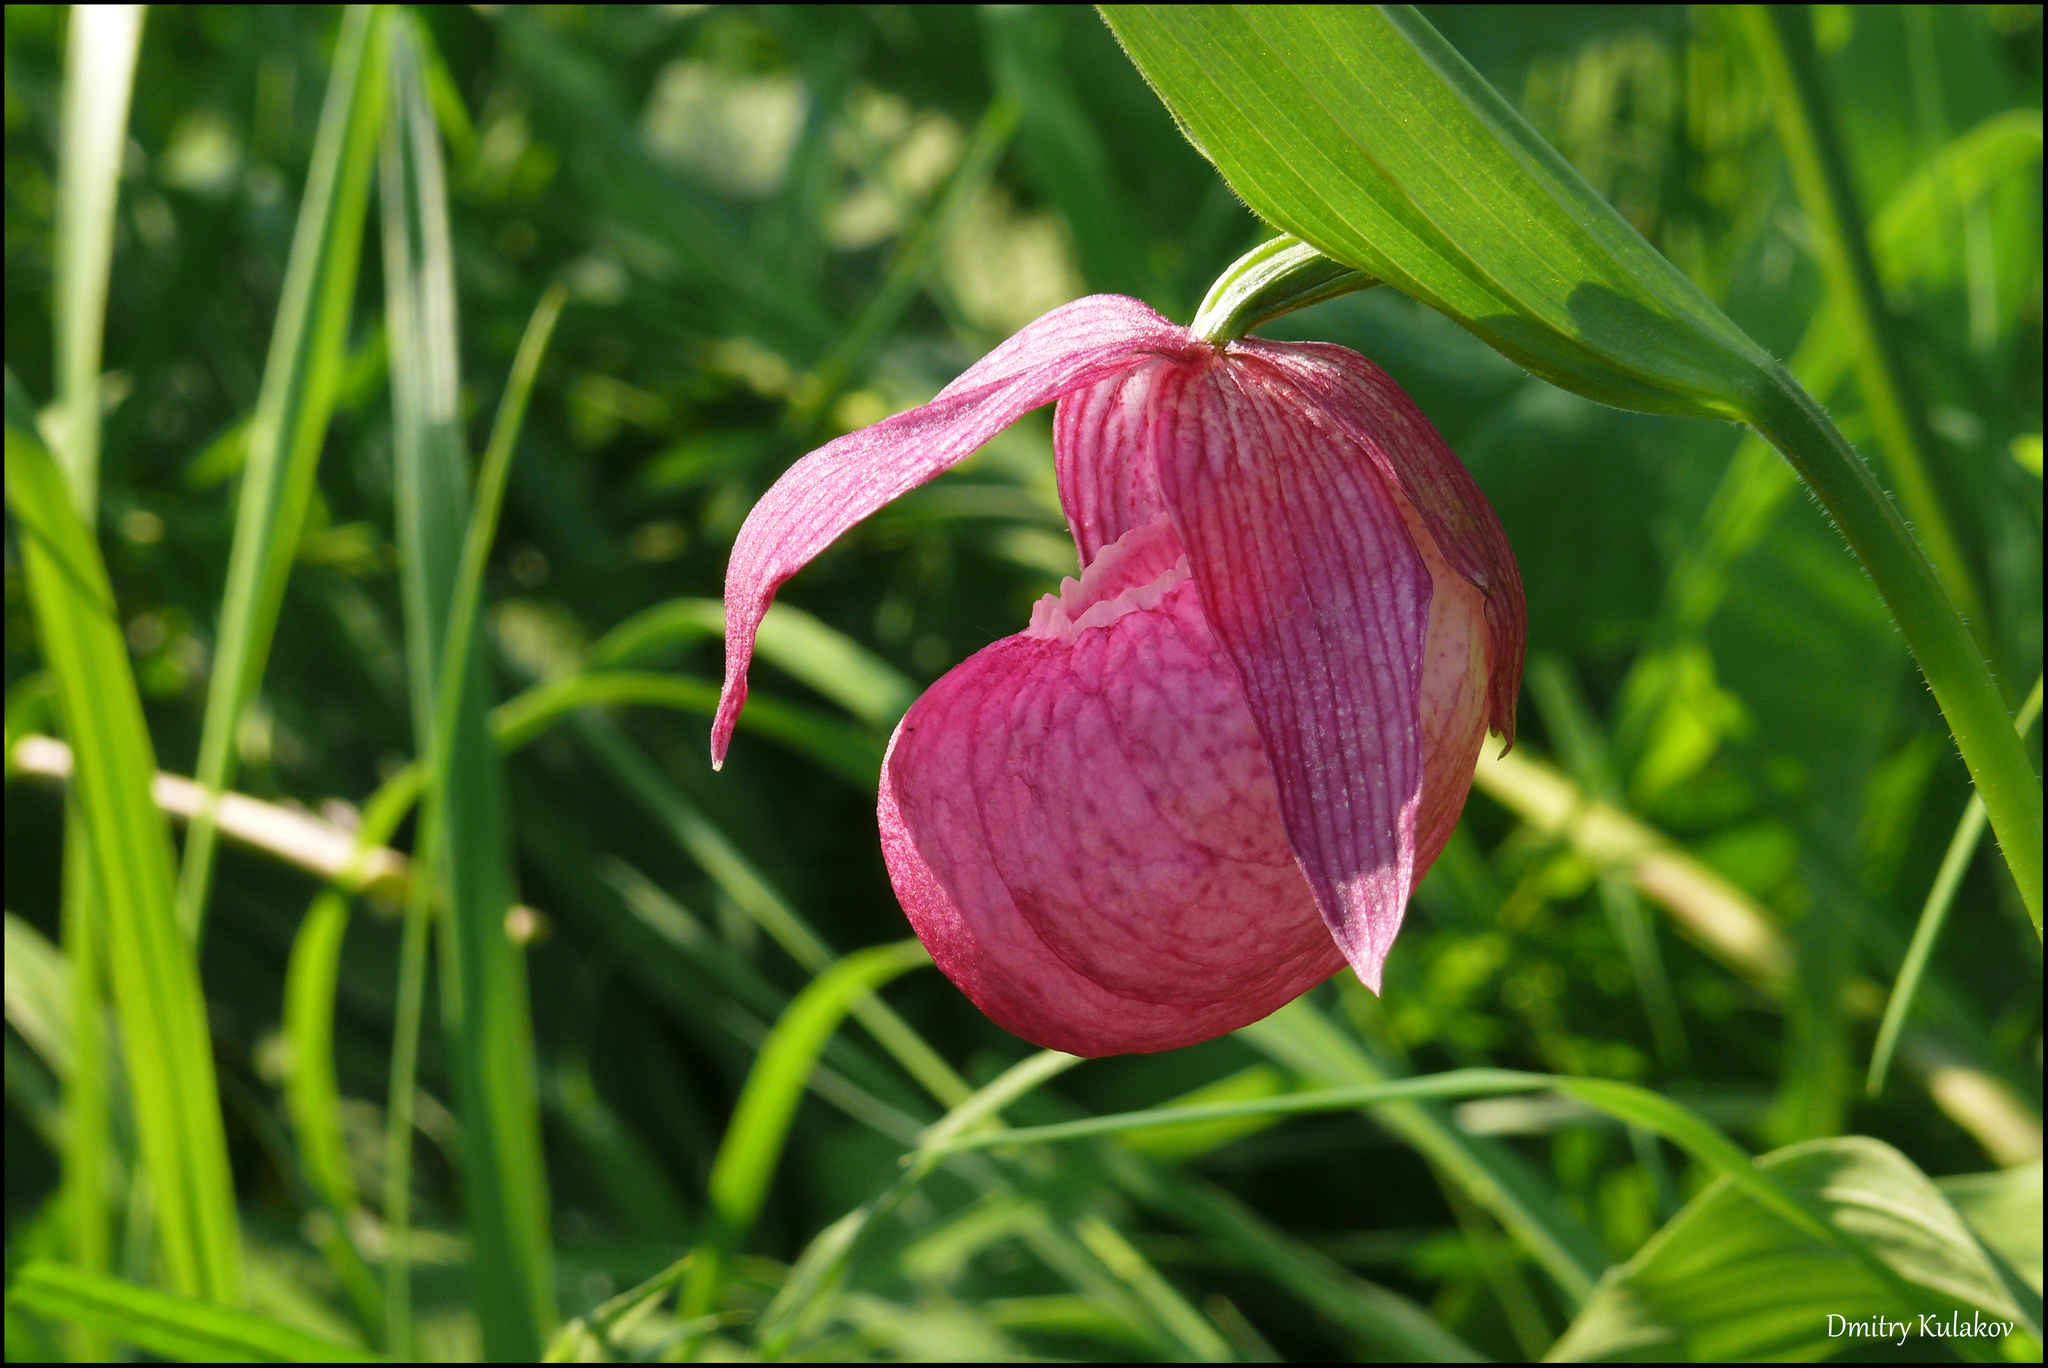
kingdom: Plantae
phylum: Tracheophyta
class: Liliopsida
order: Asparagales
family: Orchidaceae
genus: Cypripedium
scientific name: Cypripedium macranthos
